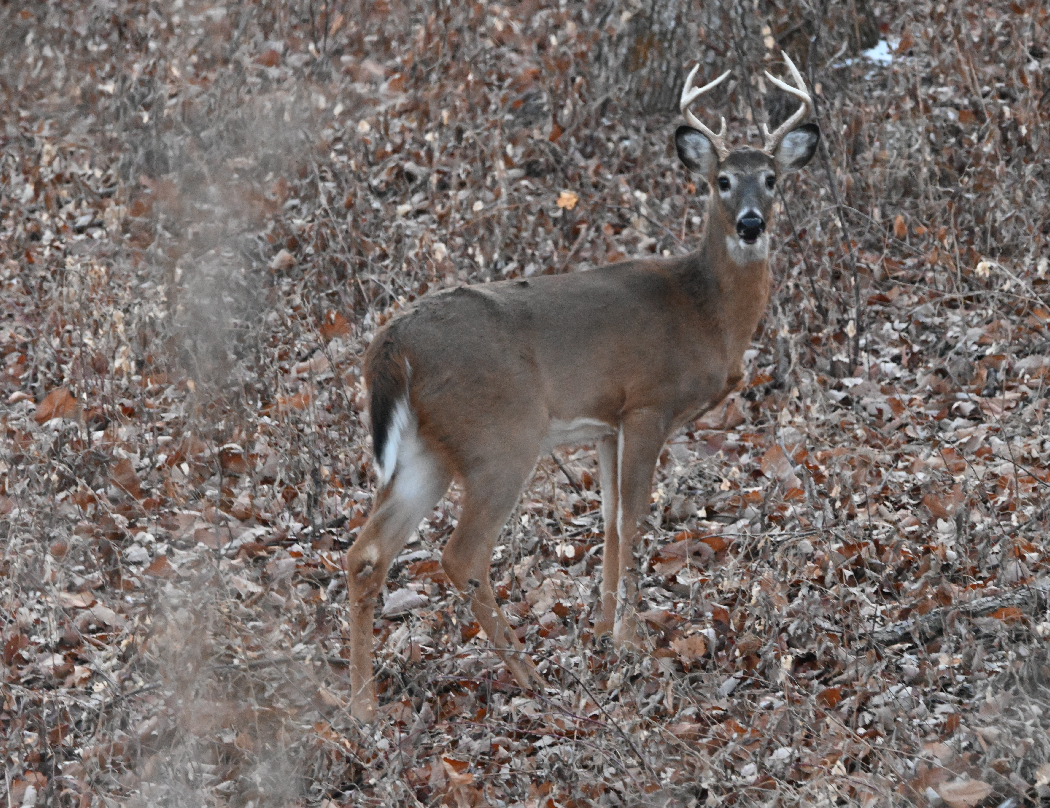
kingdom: Animalia
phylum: Chordata
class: Mammalia
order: Artiodactyla
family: Cervidae
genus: Odocoileus
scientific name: Odocoileus virginianus
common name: White-tailed deer
